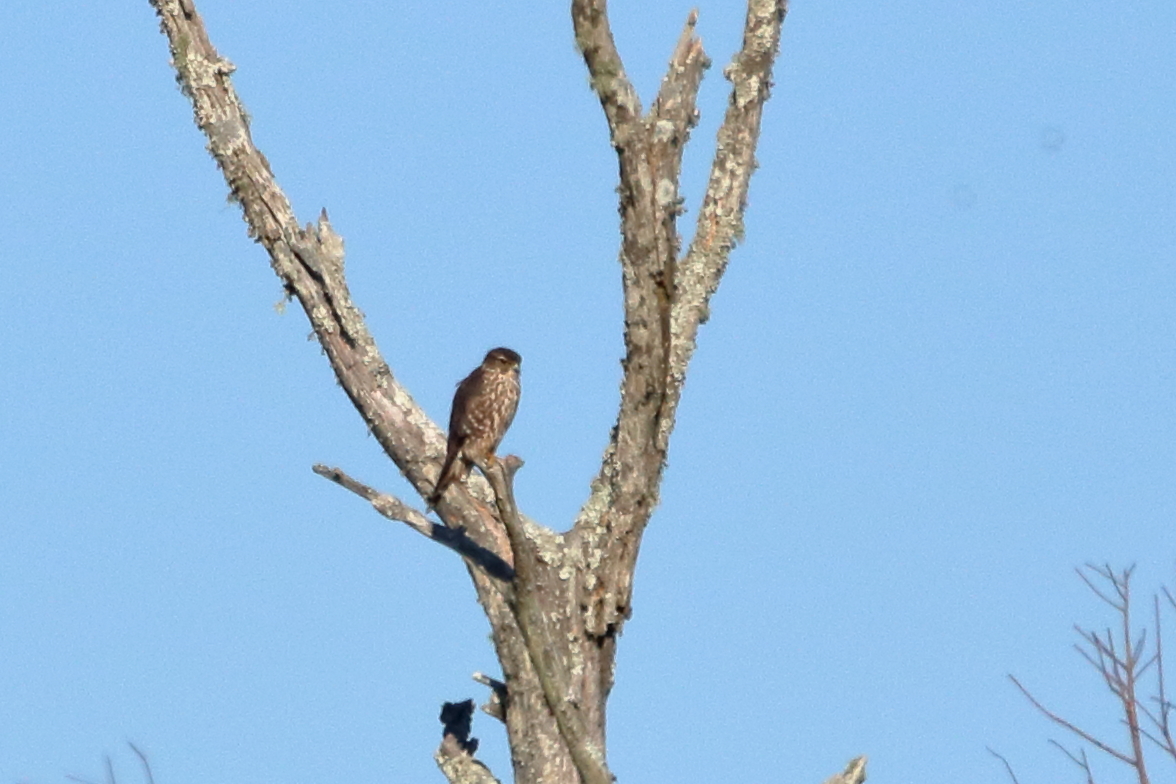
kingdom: Animalia
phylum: Chordata
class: Aves
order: Falconiformes
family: Falconidae
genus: Falco
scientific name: Falco columbarius
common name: Merlin
